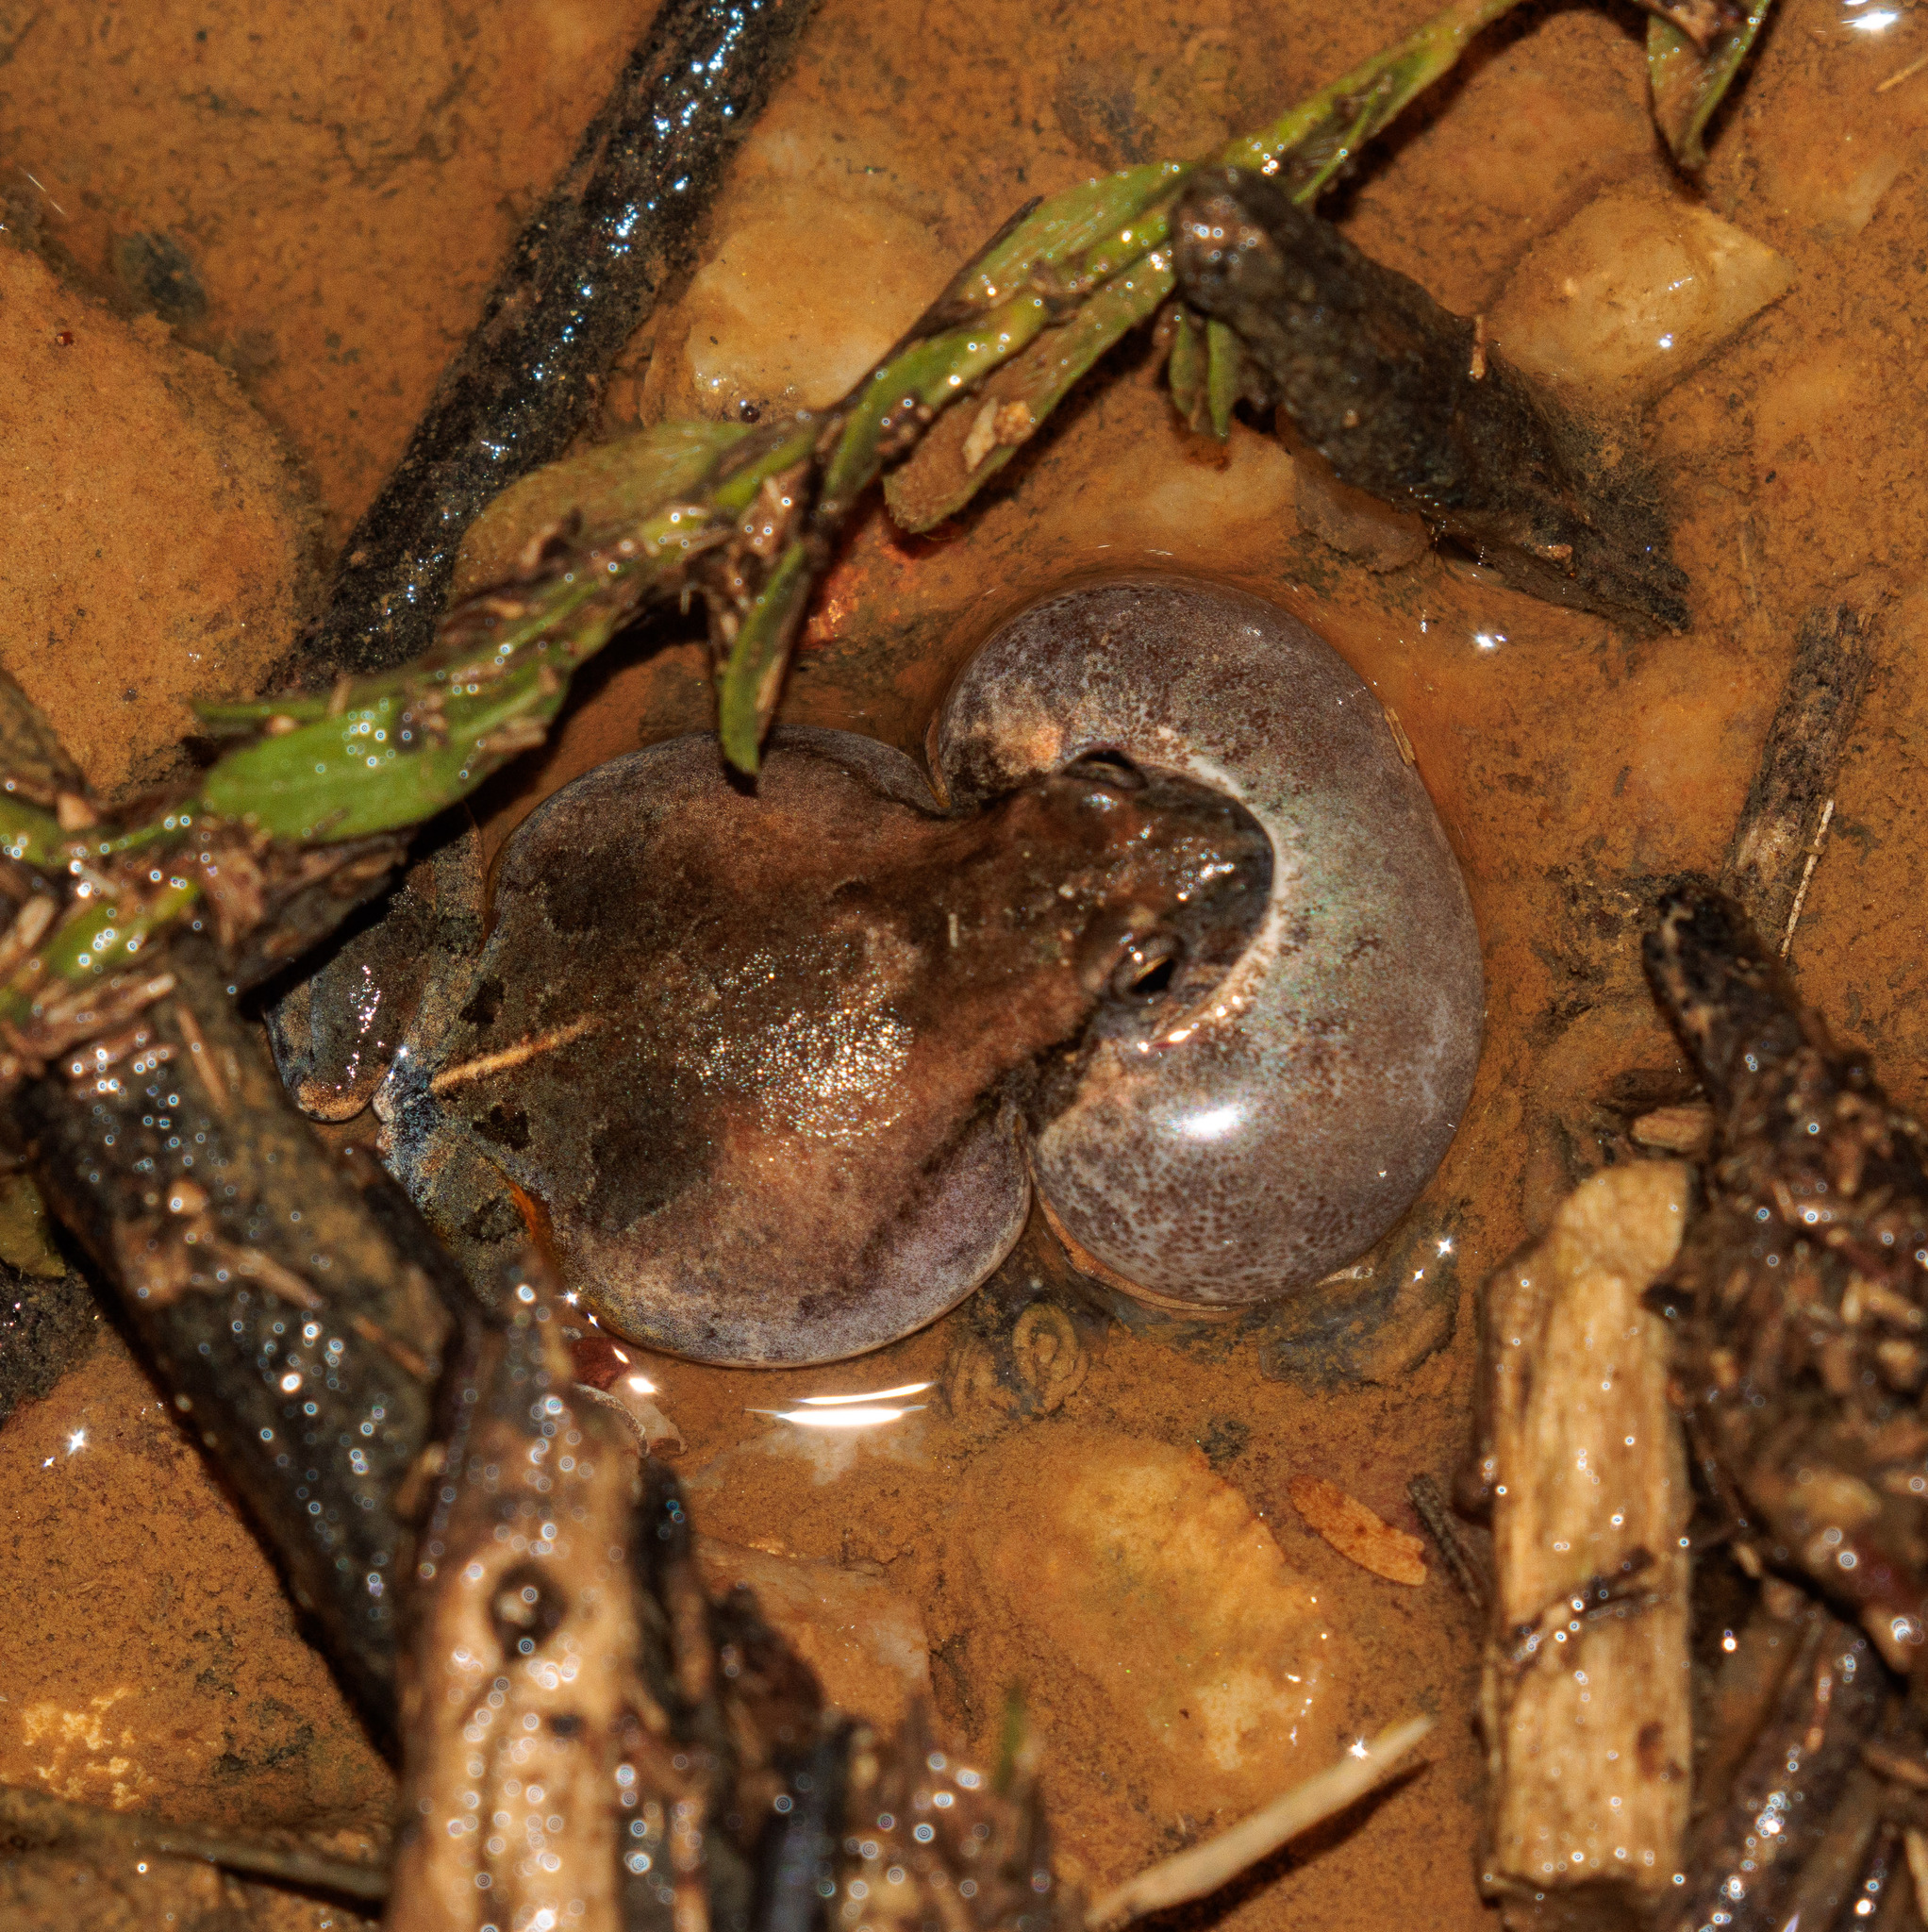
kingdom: Animalia
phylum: Chordata
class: Amphibia
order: Anura
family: Leptodactylidae
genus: Physalaemus
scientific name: Physalaemus cicada
